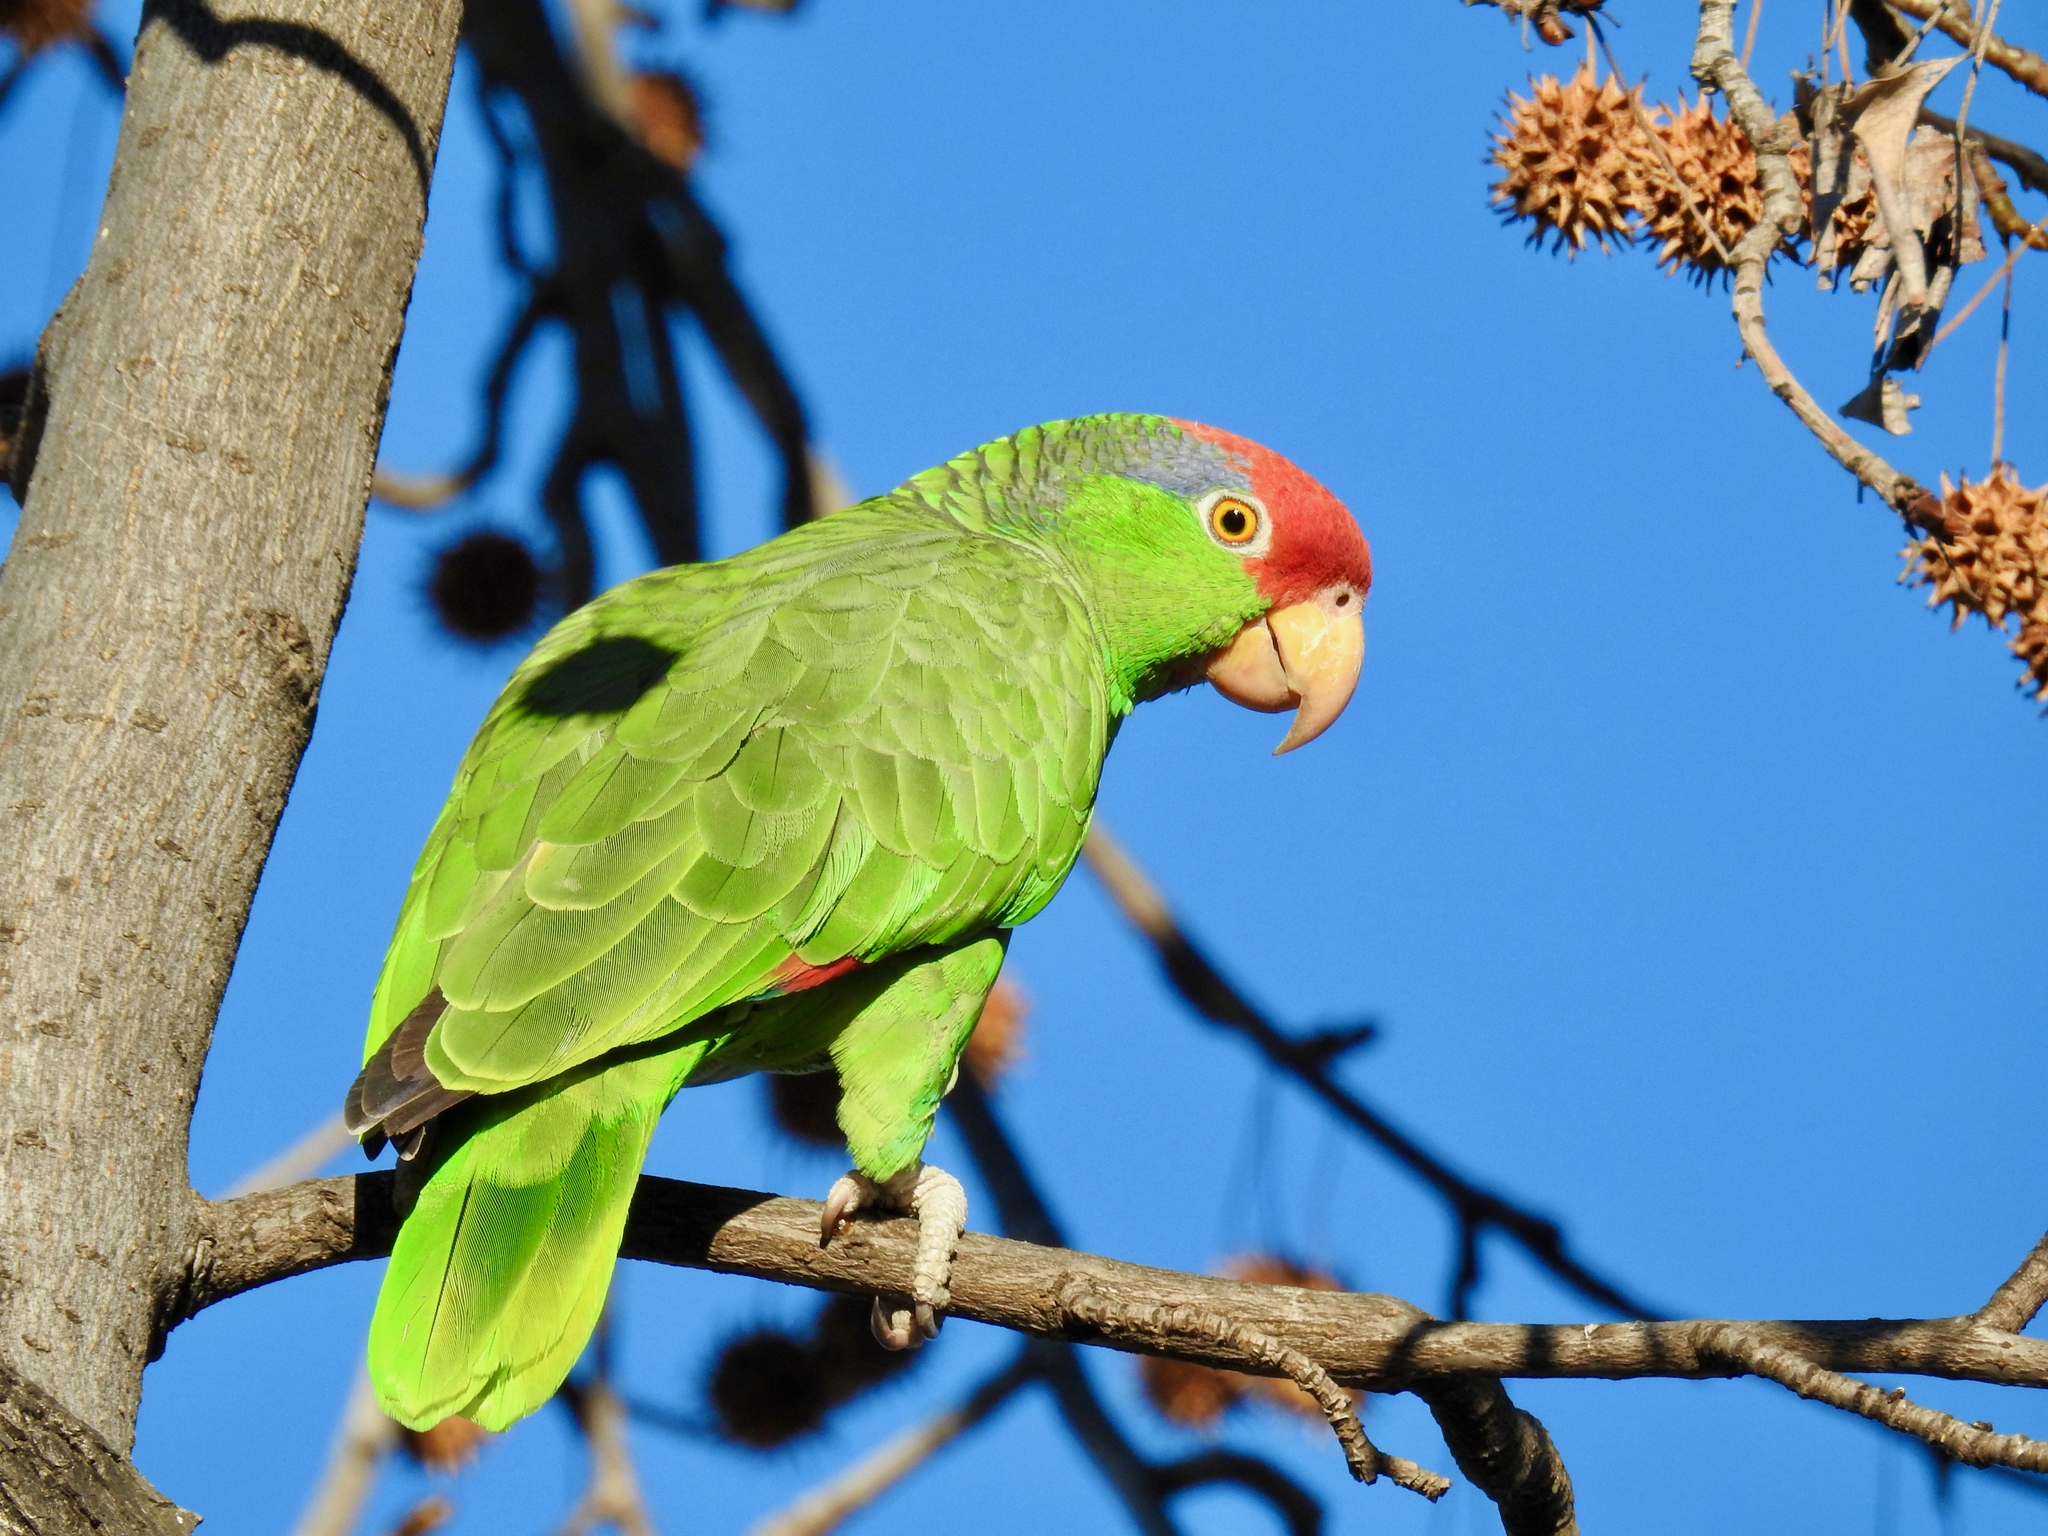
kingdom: Animalia
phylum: Chordata
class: Aves
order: Psittaciformes
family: Psittacidae
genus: Amazona
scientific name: Amazona viridigenalis
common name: Red-crowned amazon
